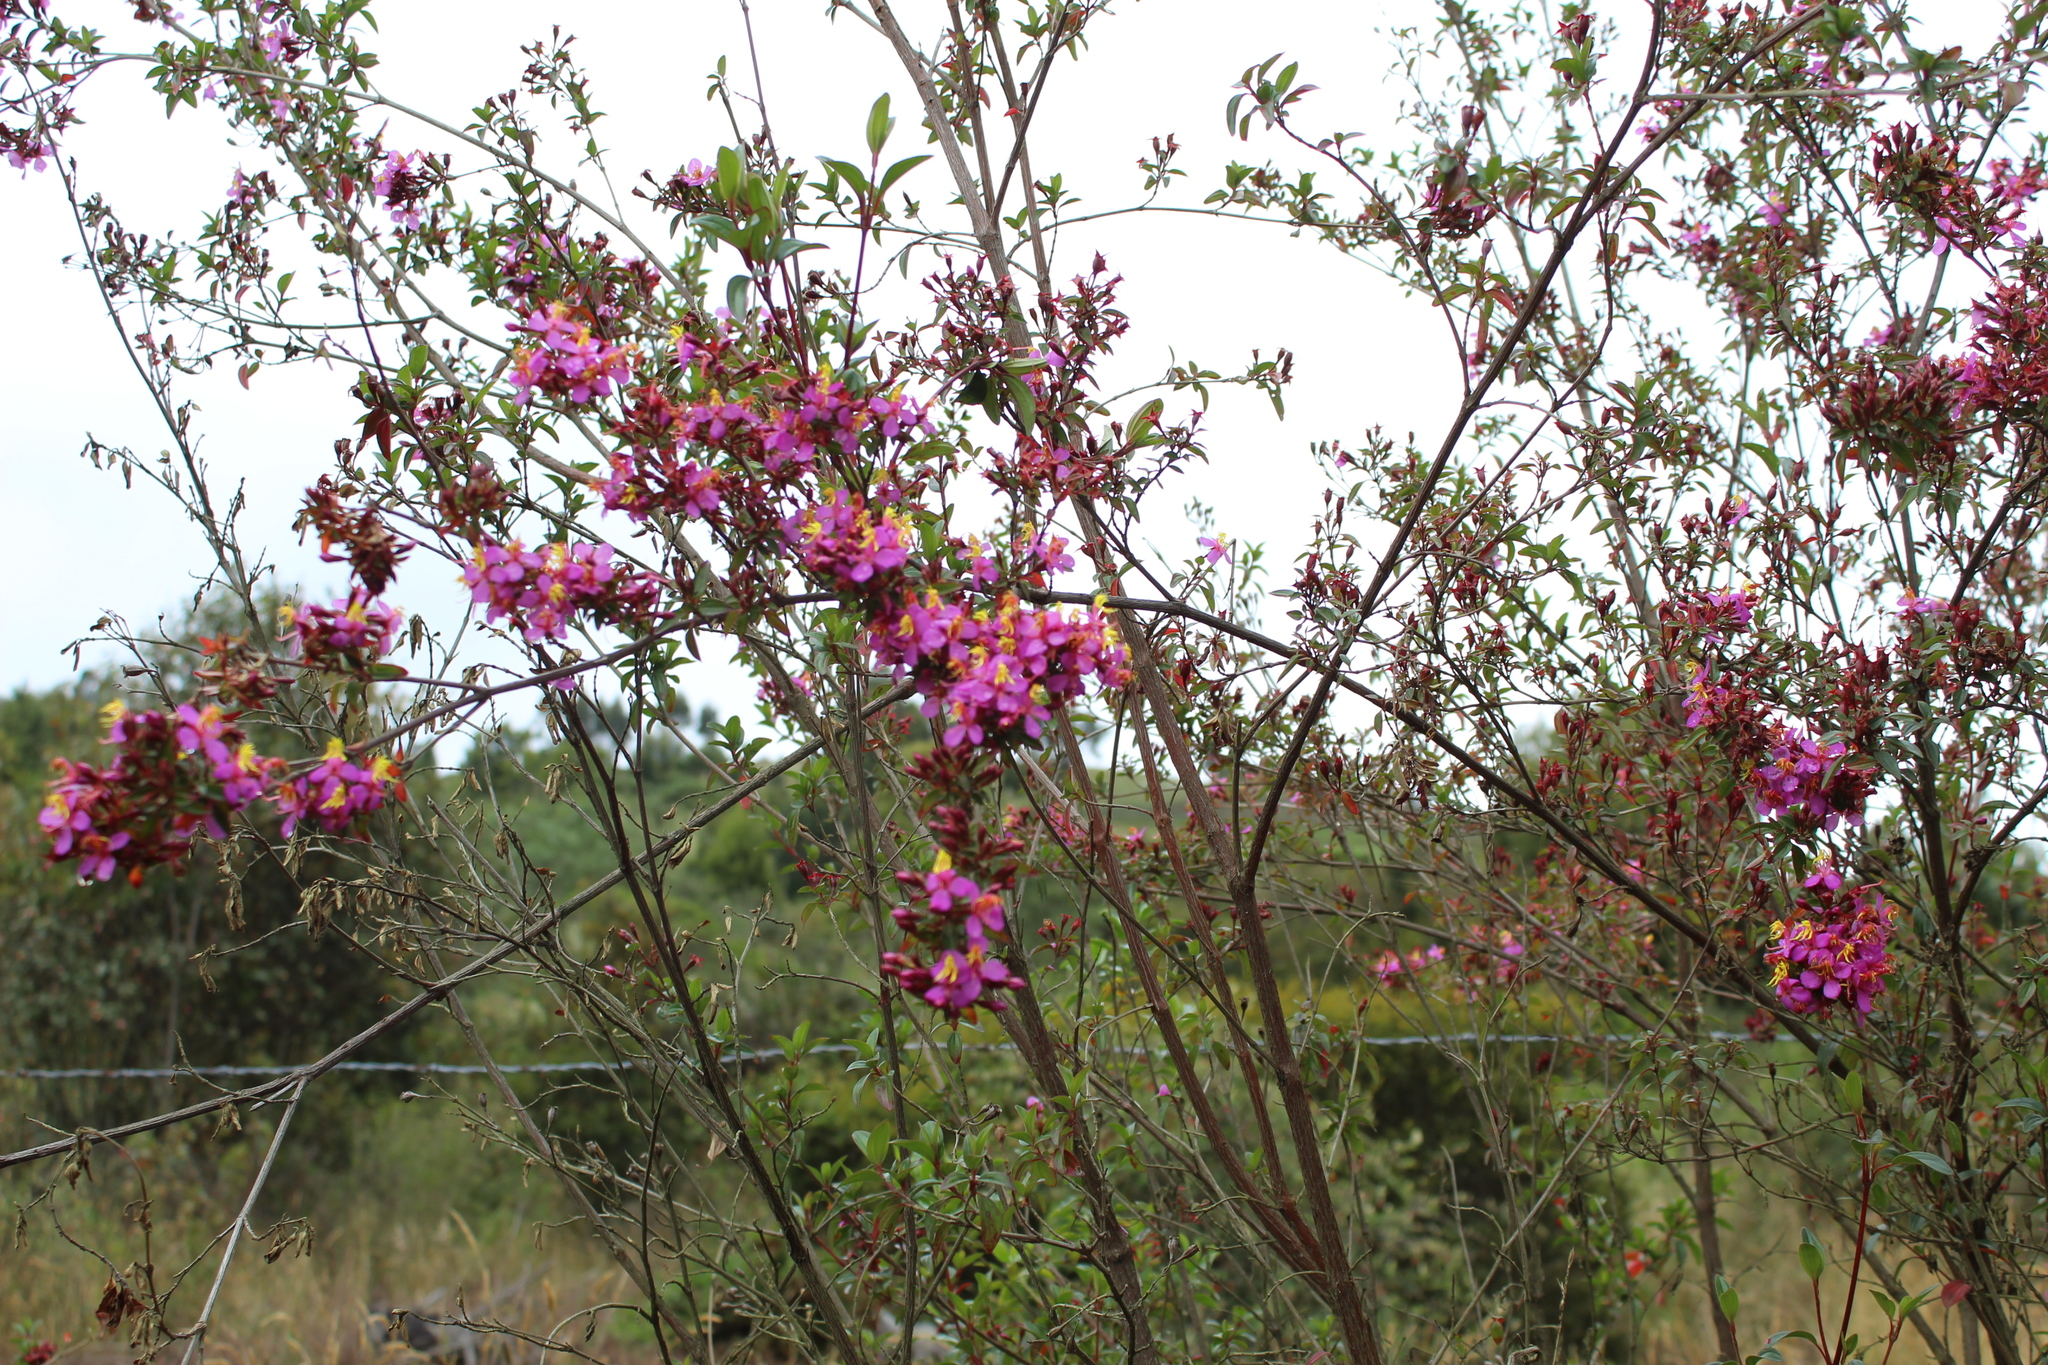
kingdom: Plantae
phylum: Tracheophyta
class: Magnoliopsida
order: Myrtales
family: Melastomataceae
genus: Monochaetum
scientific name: Monochaetum myrtoideum
